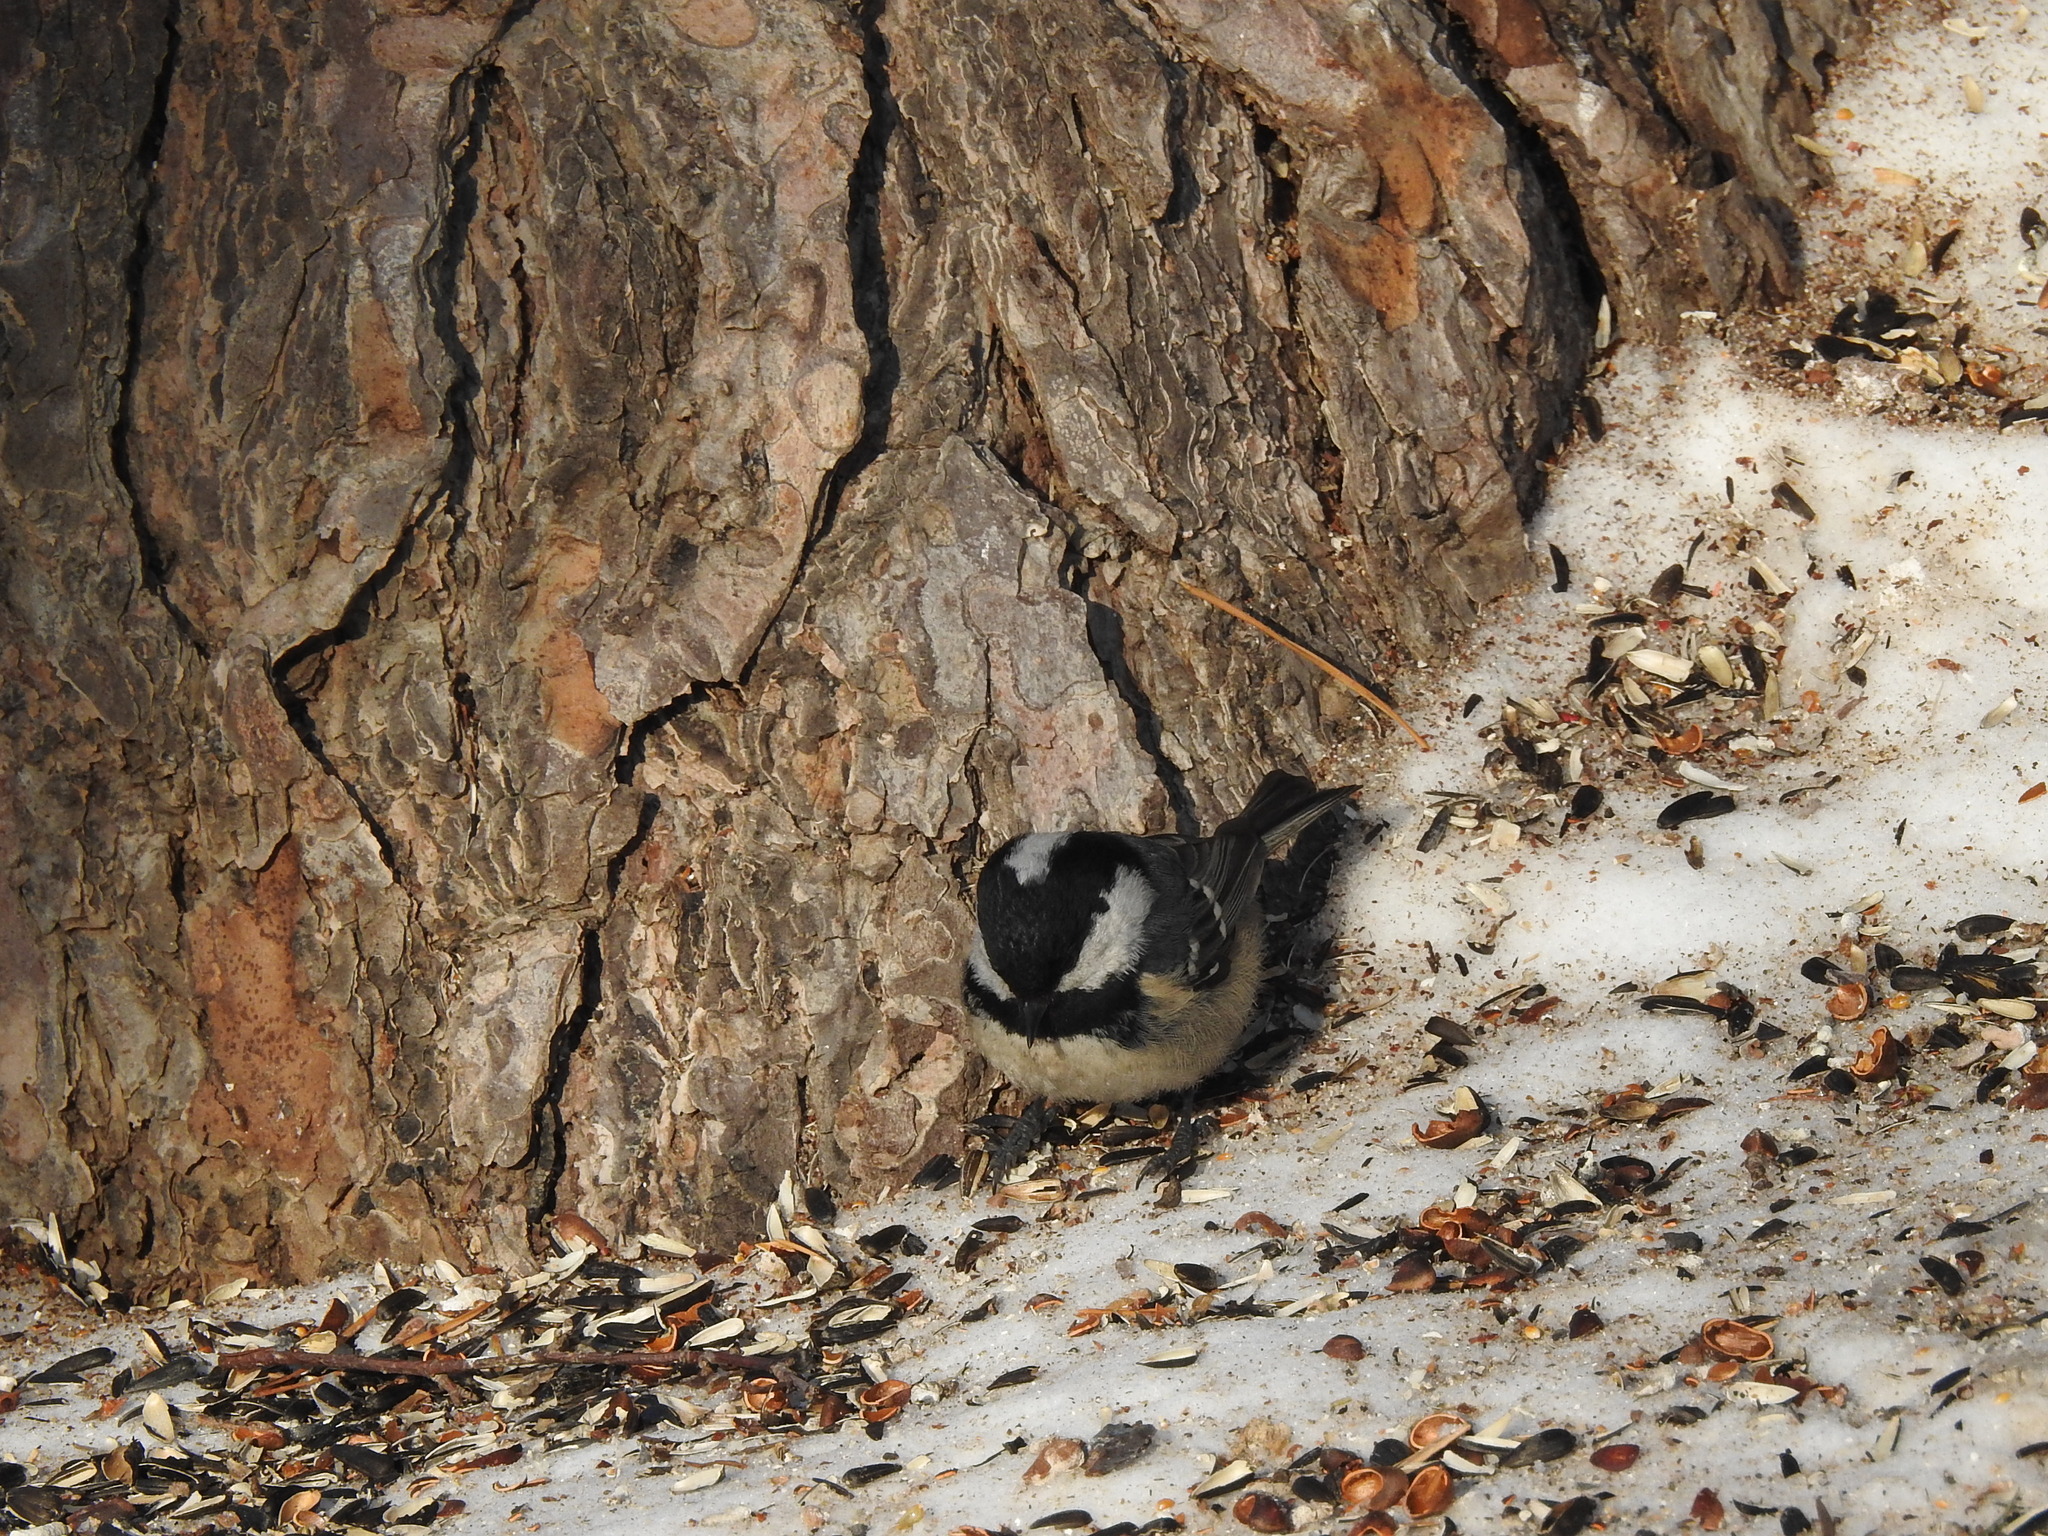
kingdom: Animalia
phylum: Chordata
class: Aves
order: Passeriformes
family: Paridae
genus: Periparus
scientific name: Periparus ater
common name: Coal tit
